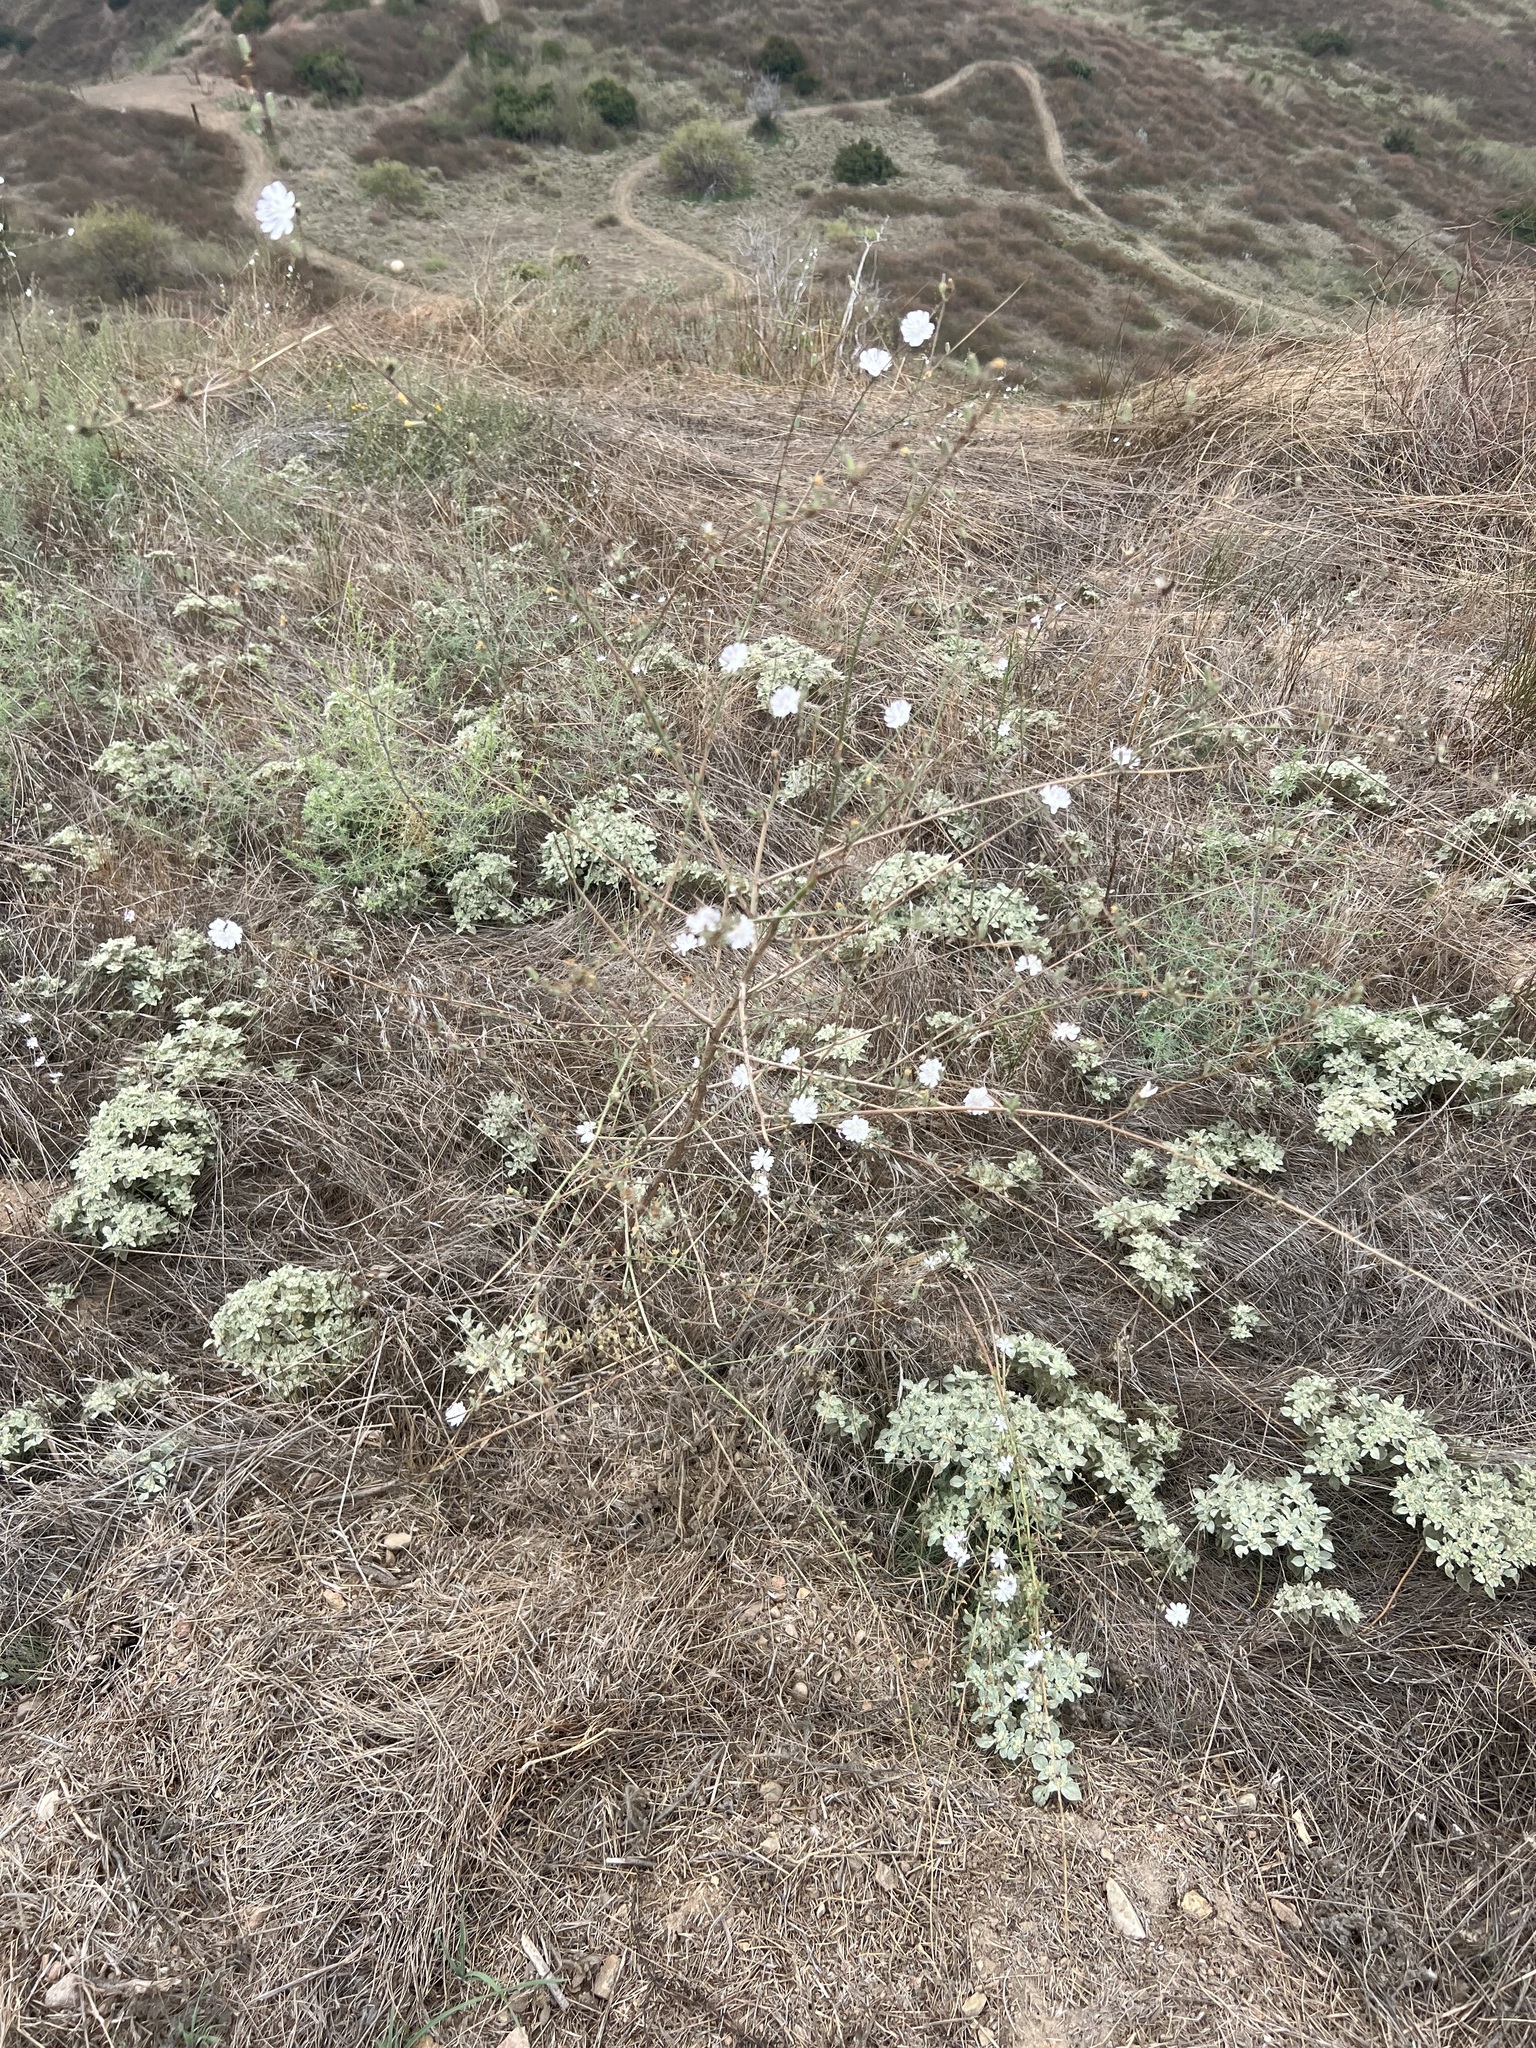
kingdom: Plantae
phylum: Tracheophyta
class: Magnoliopsida
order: Asterales
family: Asteraceae
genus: Stephanomeria
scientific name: Stephanomeria diegensis
